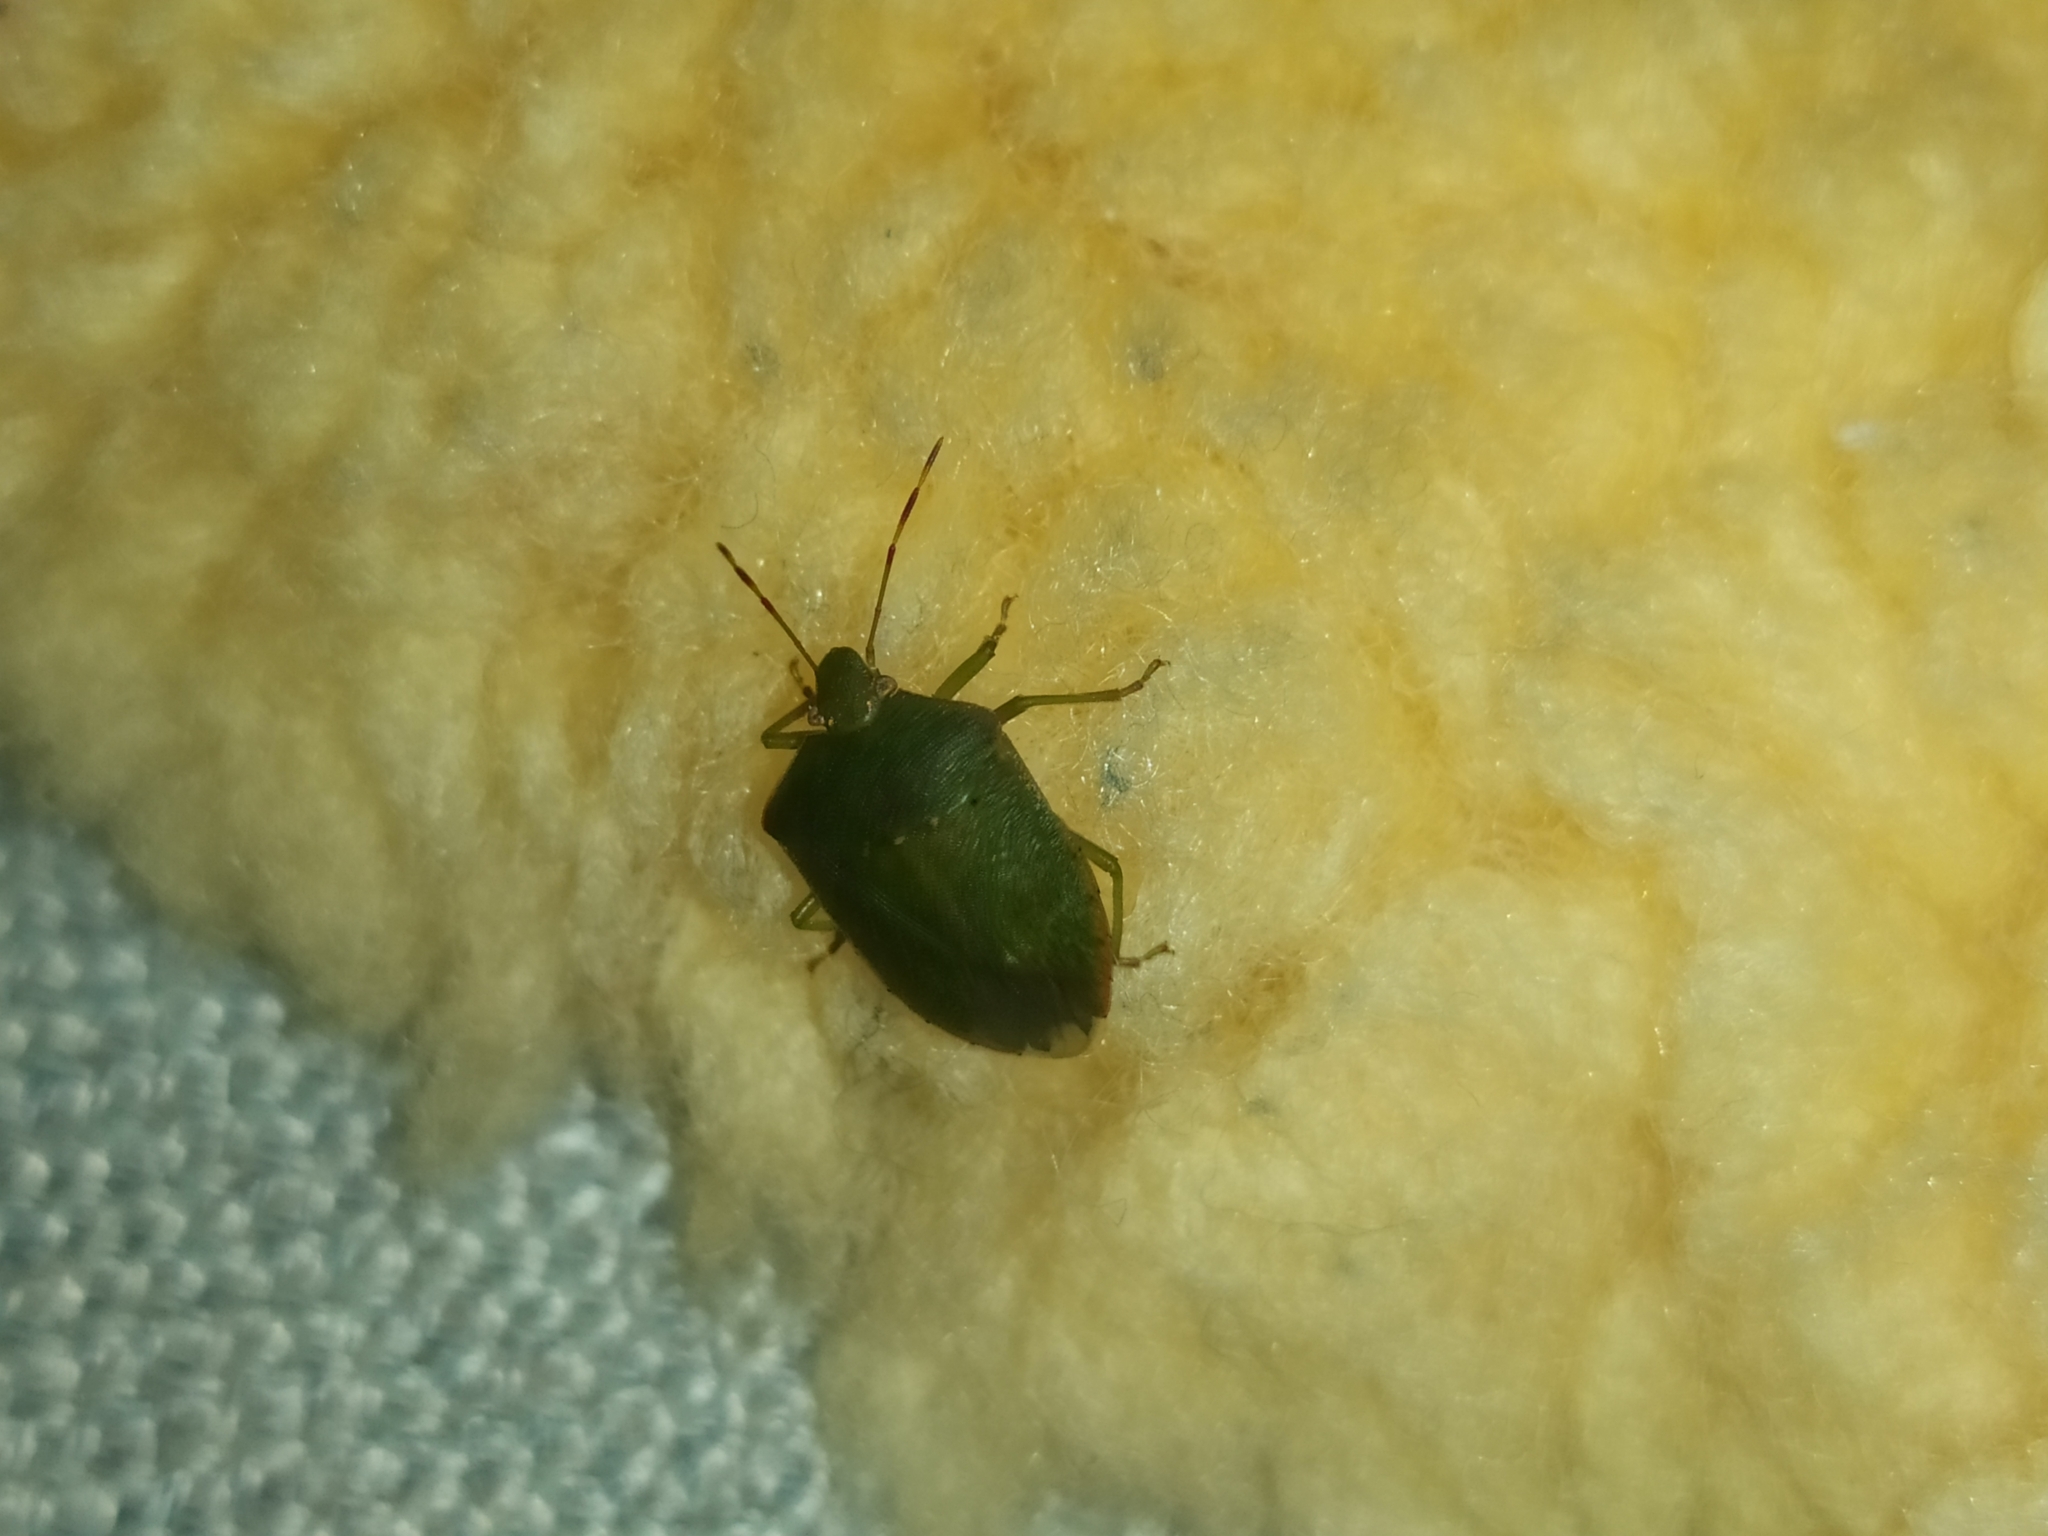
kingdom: Animalia
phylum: Arthropoda
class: Insecta
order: Hemiptera
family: Pentatomidae
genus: Nezara
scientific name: Nezara viridula
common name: Southern green stink bug
